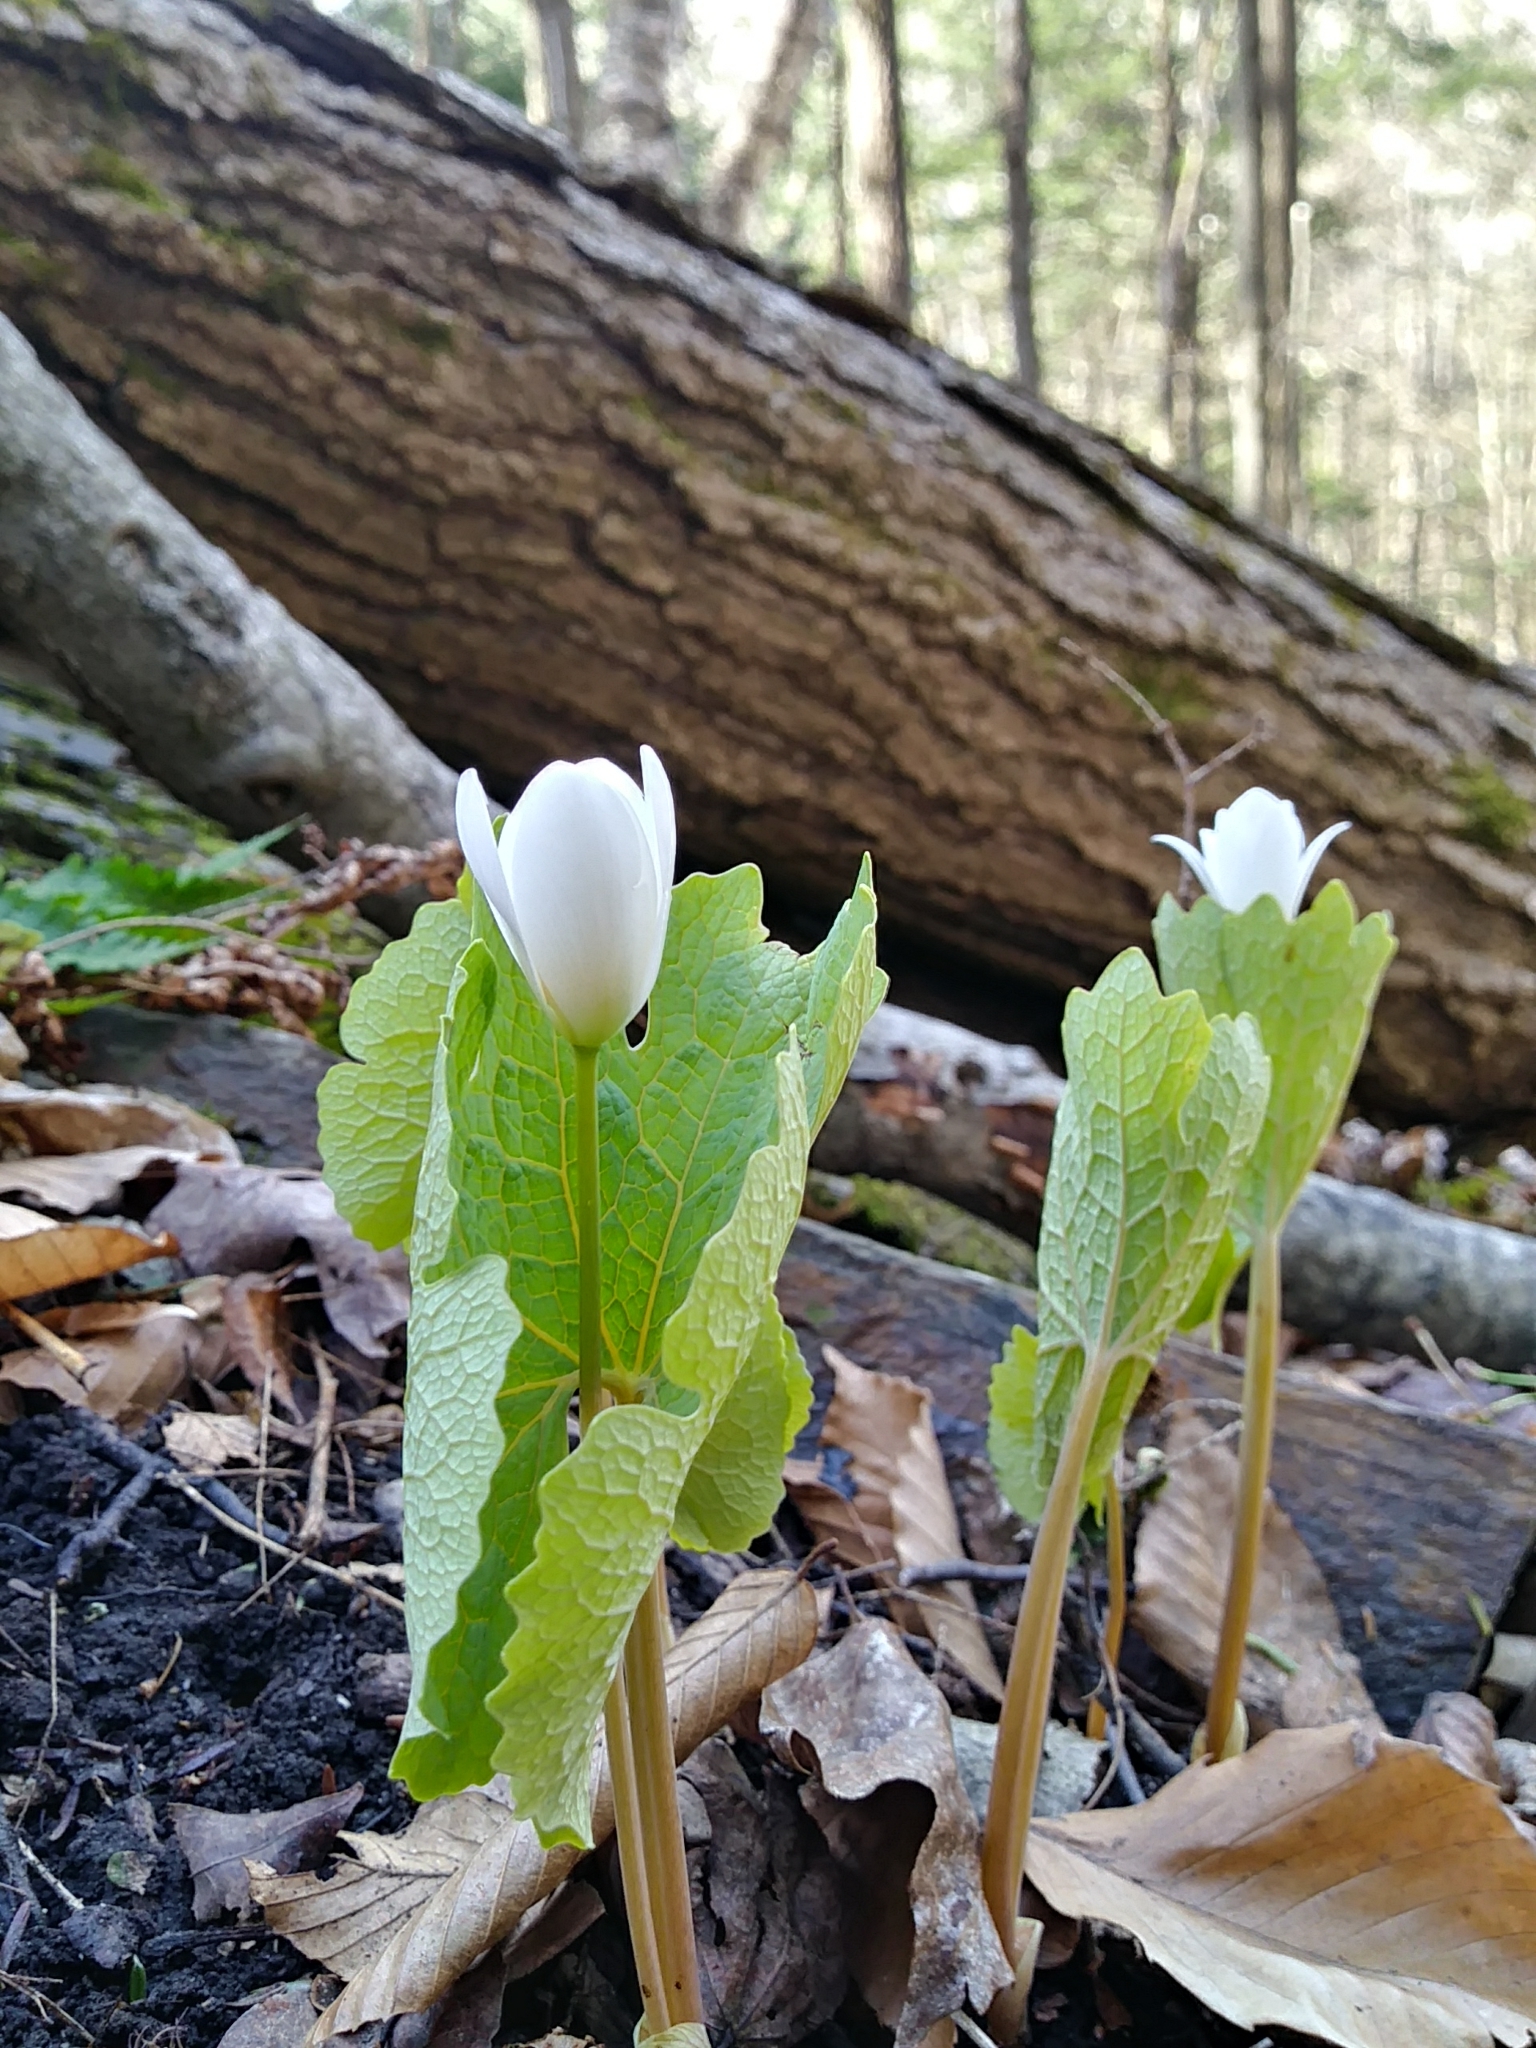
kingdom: Plantae
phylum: Tracheophyta
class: Magnoliopsida
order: Ranunculales
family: Papaveraceae
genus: Sanguinaria
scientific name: Sanguinaria canadensis
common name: Bloodroot
